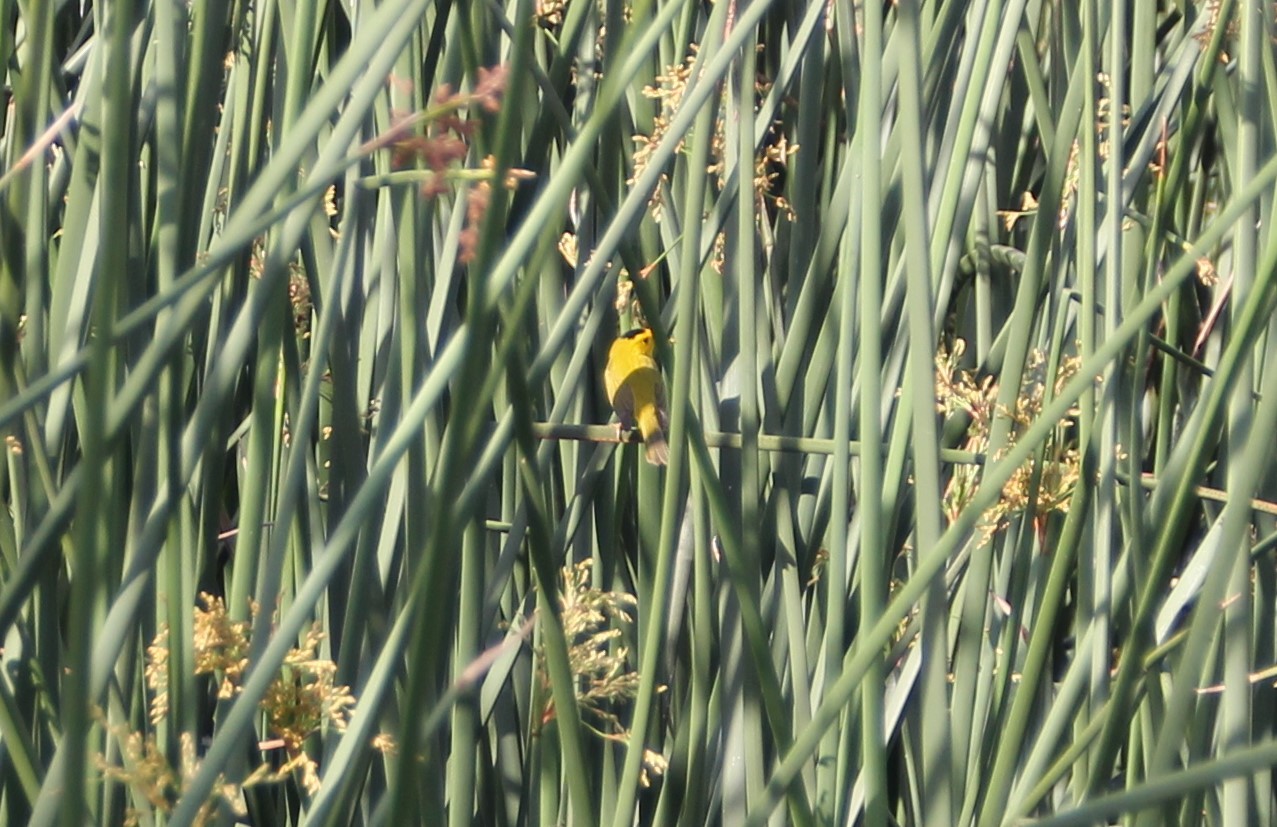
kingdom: Animalia
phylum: Chordata
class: Aves
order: Passeriformes
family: Parulidae
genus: Cardellina
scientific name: Cardellina pusilla
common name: Wilson's warbler
